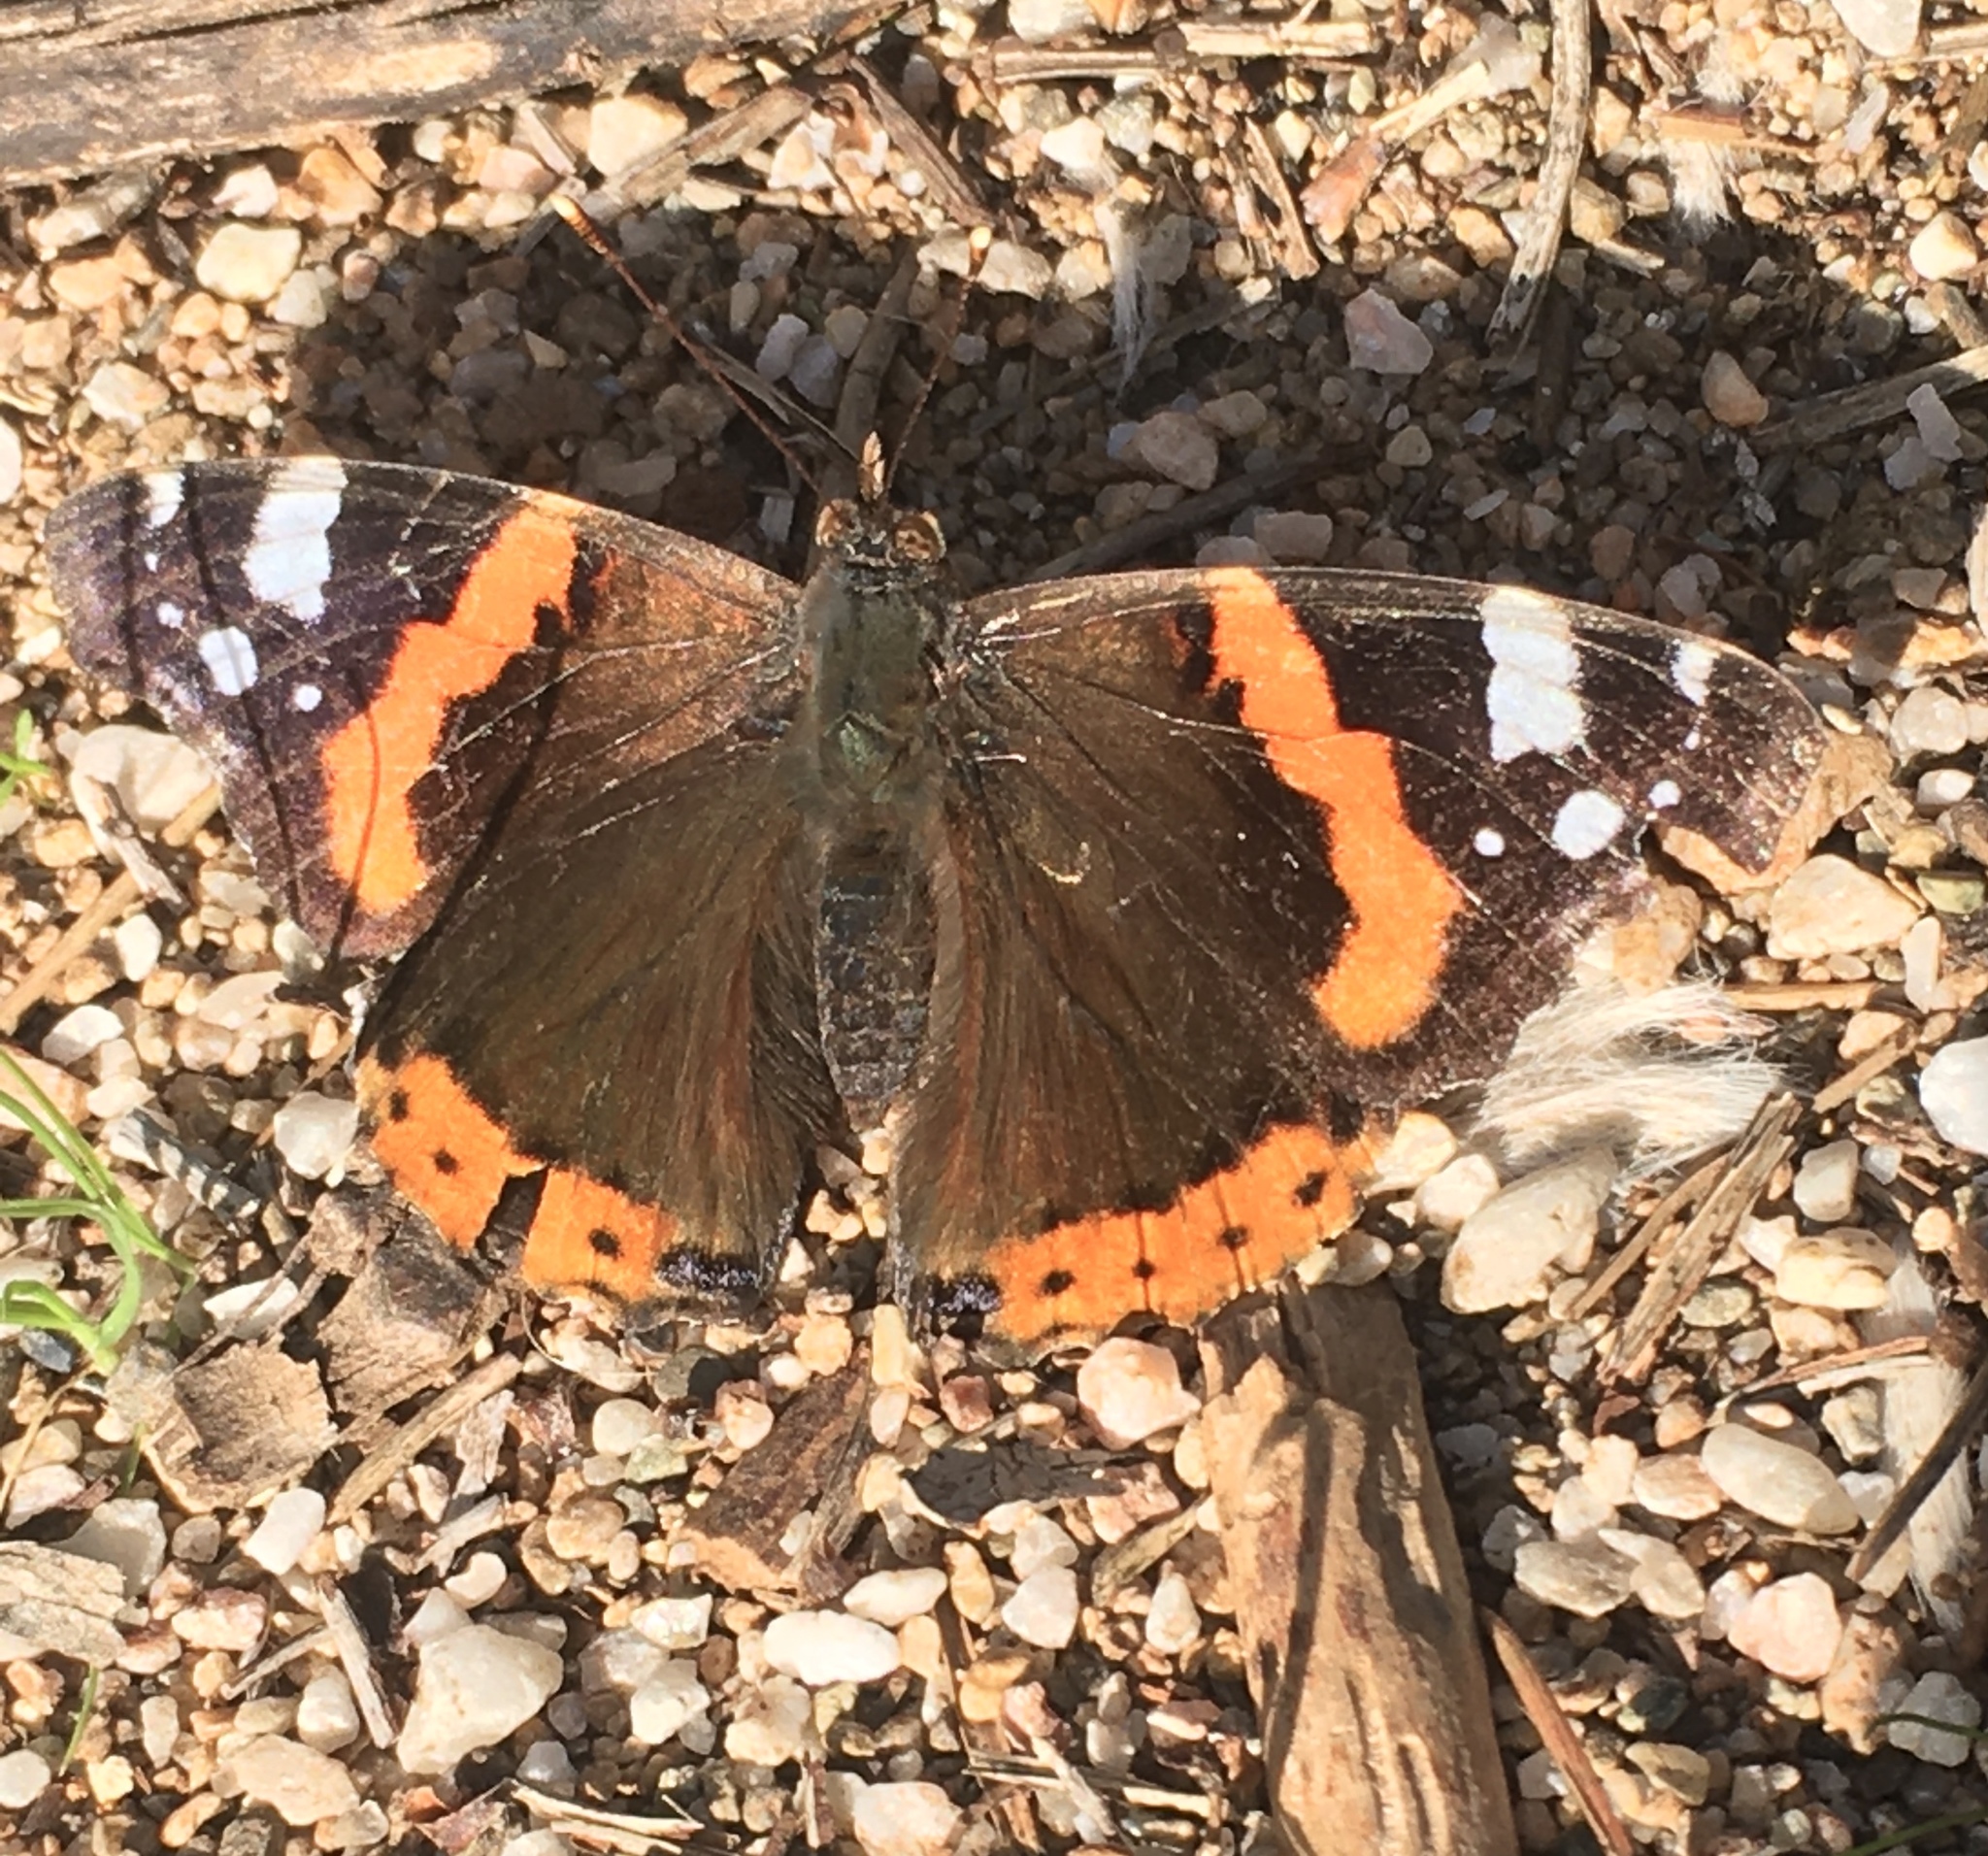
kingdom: Animalia
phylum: Arthropoda
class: Insecta
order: Lepidoptera
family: Nymphalidae
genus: Vanessa
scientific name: Vanessa atalanta
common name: Red admiral
